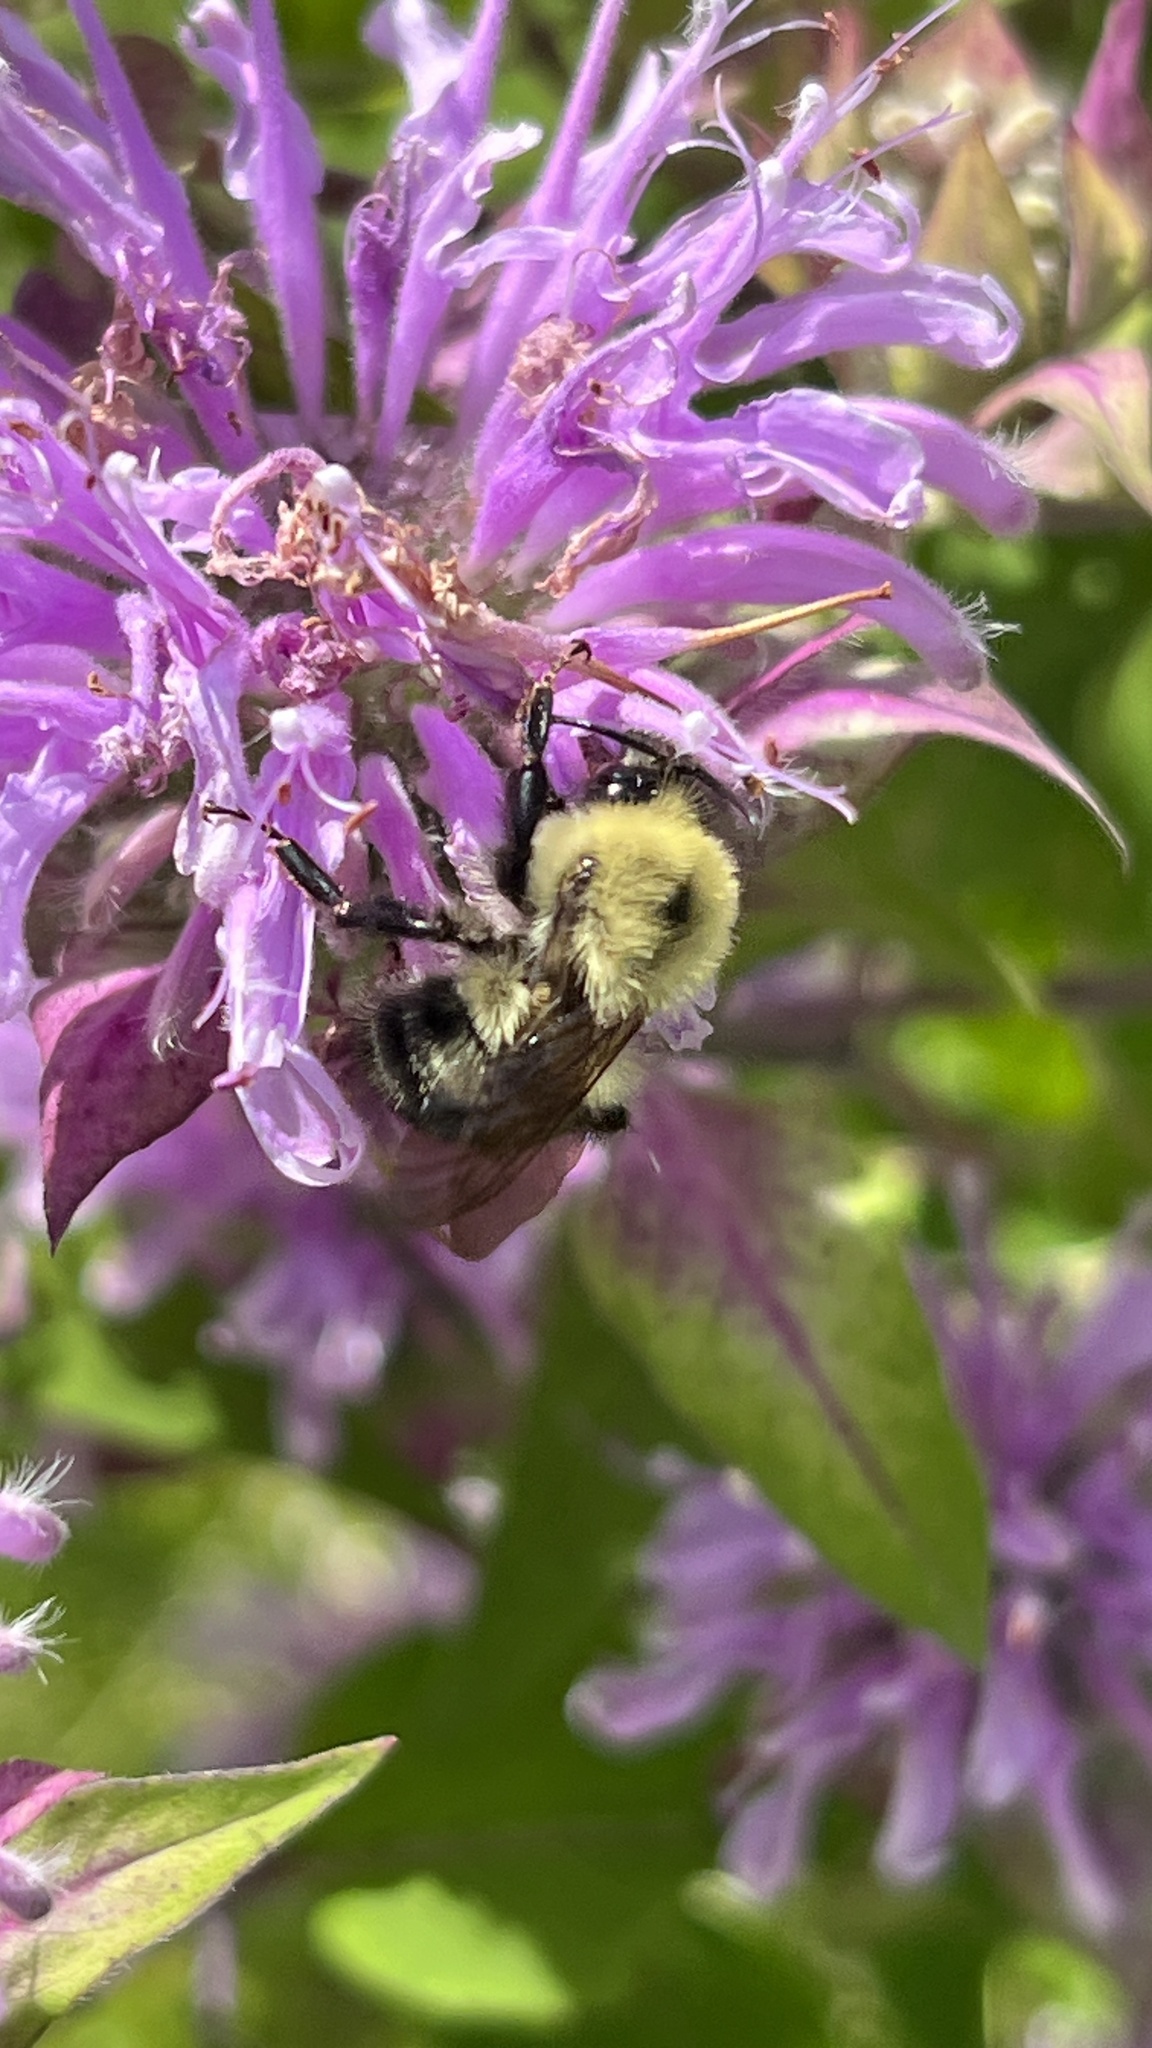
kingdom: Animalia
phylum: Arthropoda
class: Insecta
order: Hymenoptera
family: Apidae
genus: Bombus
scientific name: Bombus bimaculatus
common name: Two-spotted bumble bee
